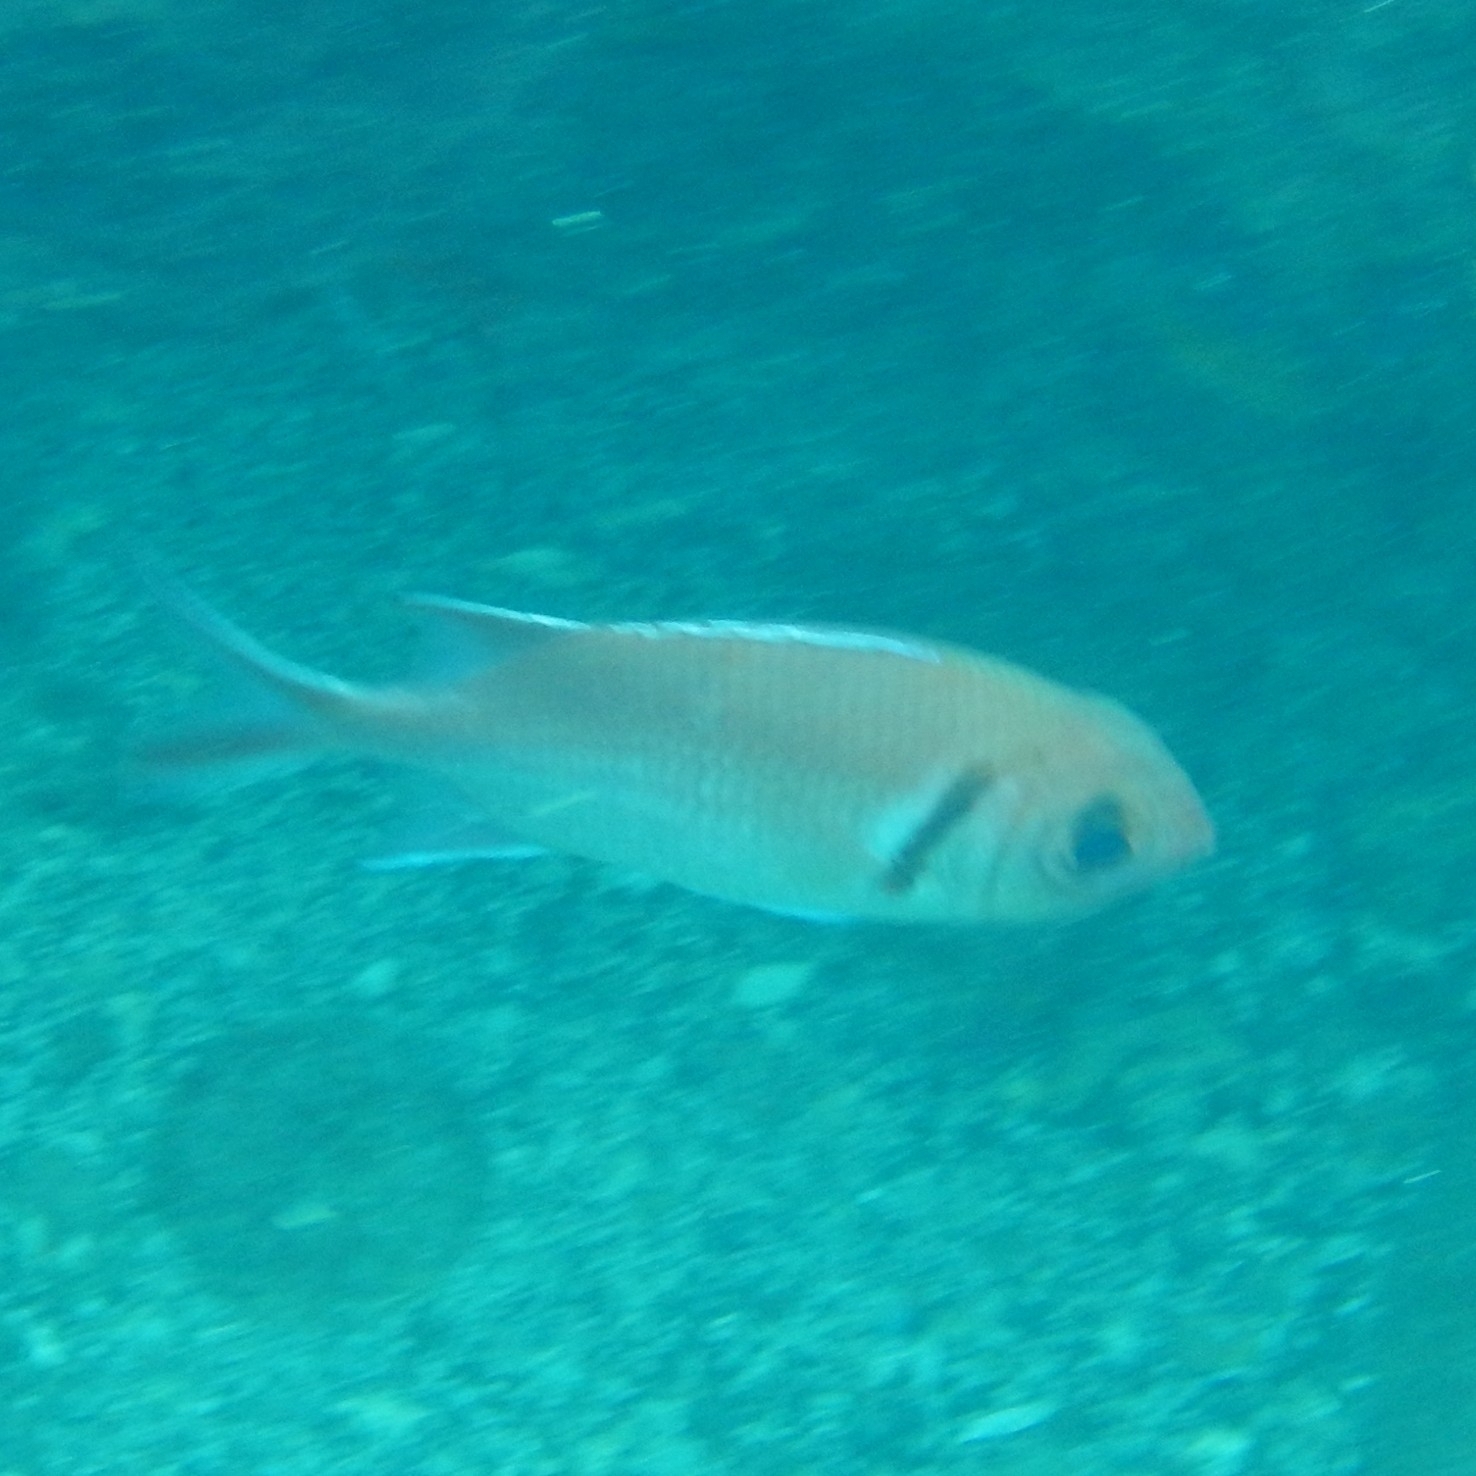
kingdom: Animalia
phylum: Chordata
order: Beryciformes
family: Holocentridae
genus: Myripristis
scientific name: Myripristis jacobus
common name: Blackbar soldierfish
